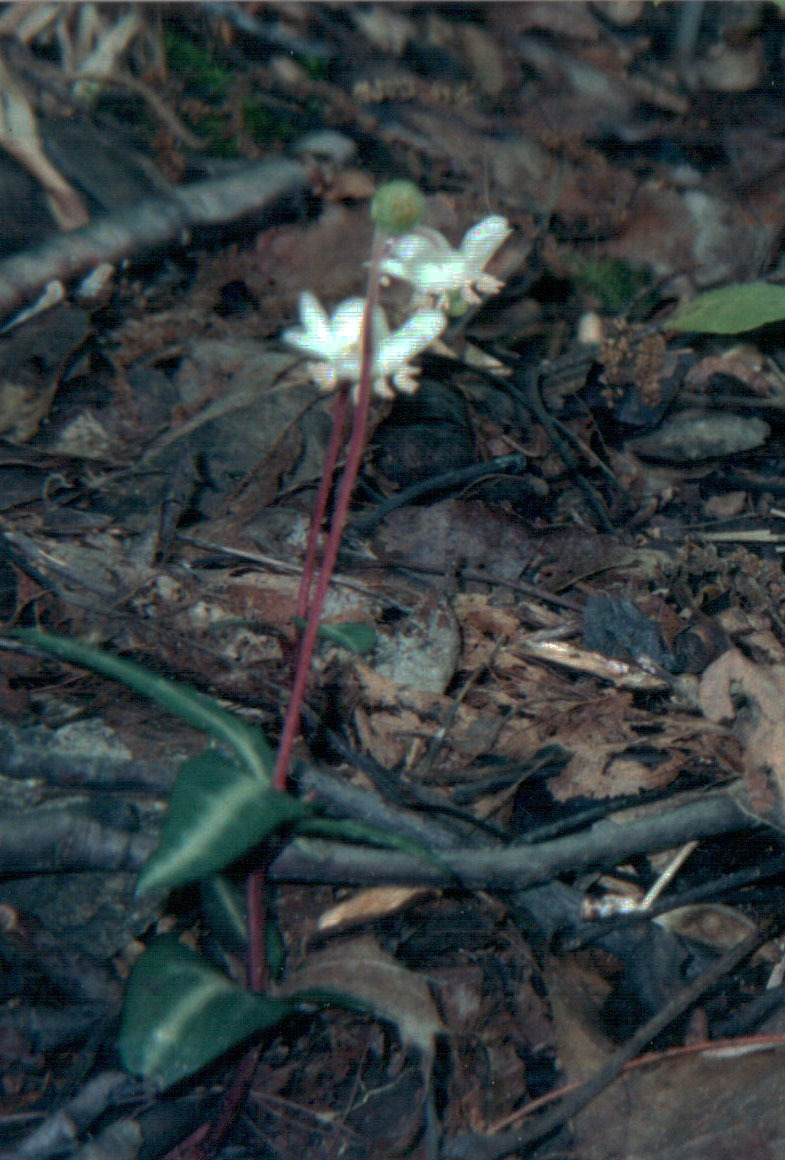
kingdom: Plantae
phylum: Tracheophyta
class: Magnoliopsida
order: Ericales
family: Ericaceae
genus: Chimaphila
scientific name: Chimaphila maculata
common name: Spotted pipsissewa
